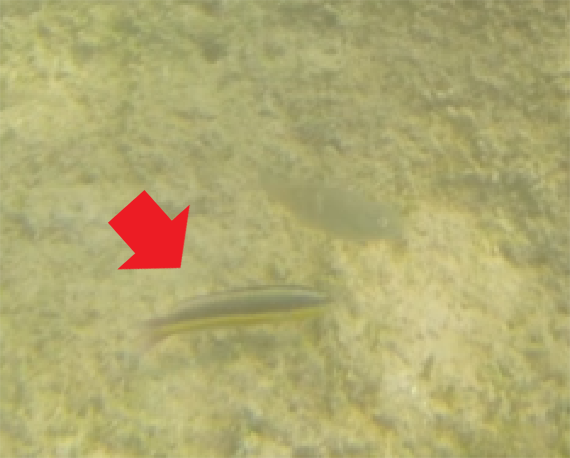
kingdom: Animalia
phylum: Chordata
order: Perciformes
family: Labridae
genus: Thalassoma
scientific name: Thalassoma lucasanum
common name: Cortez rainbow wrasse
